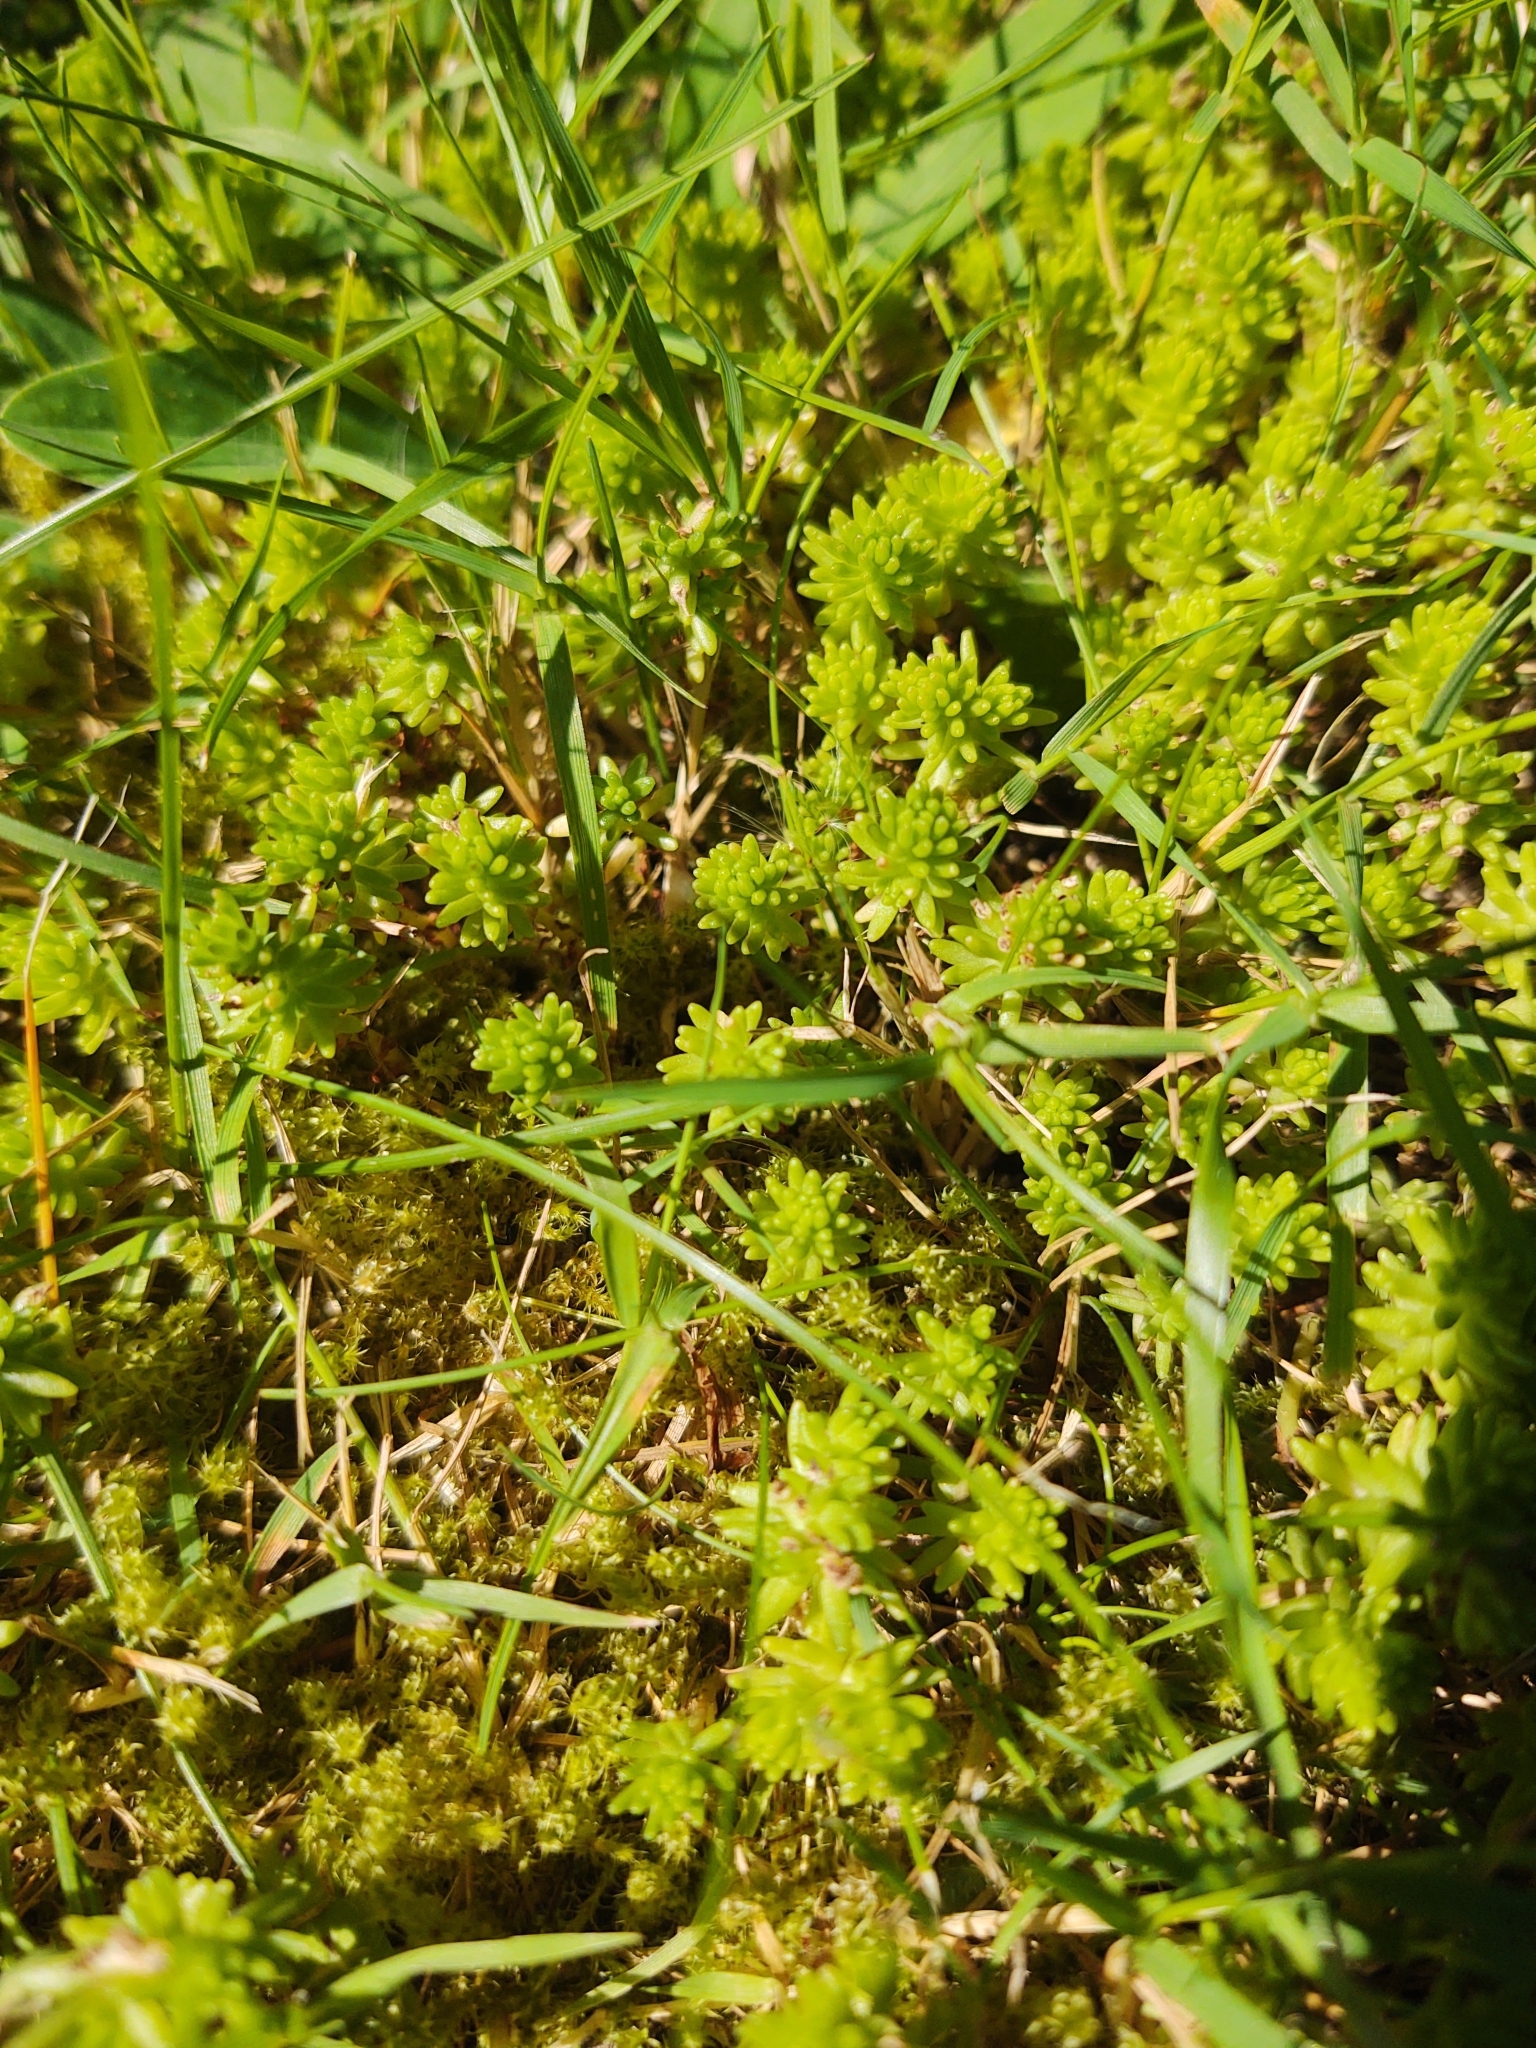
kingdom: Plantae
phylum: Tracheophyta
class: Magnoliopsida
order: Saxifragales
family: Crassulaceae
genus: Sedum
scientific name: Sedum sexangulare
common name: Tasteless stonecrop
